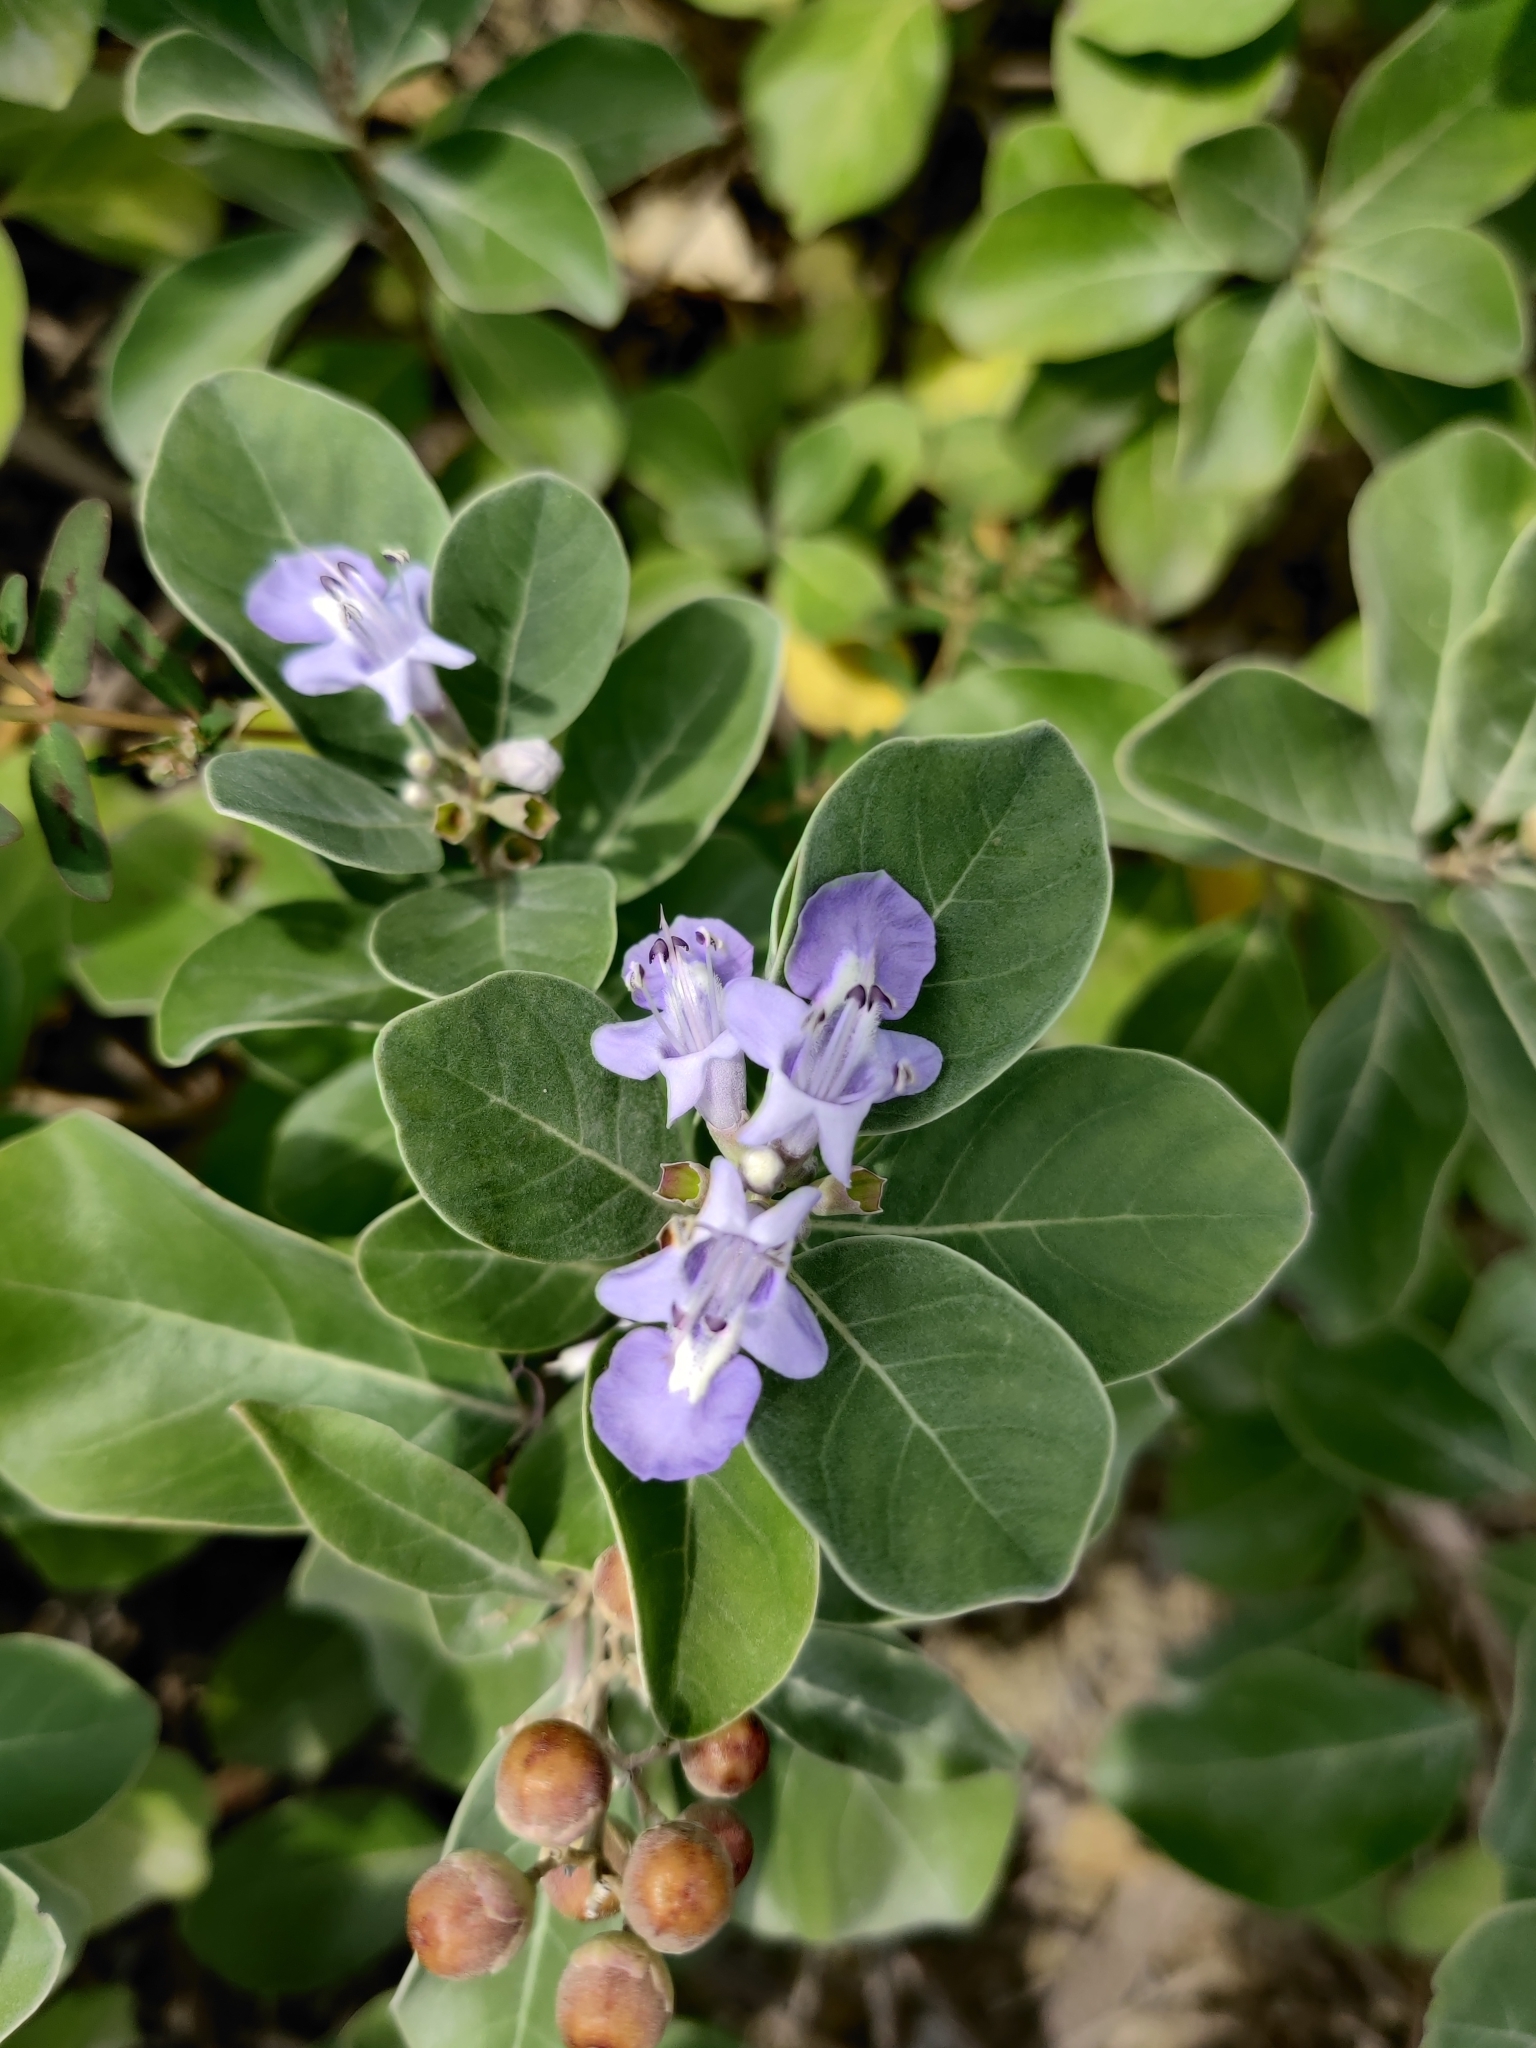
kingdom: Plantae
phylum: Tracheophyta
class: Magnoliopsida
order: Lamiales
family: Lamiaceae
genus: Vitex
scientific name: Vitex rotundifolia
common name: Beach vitex
